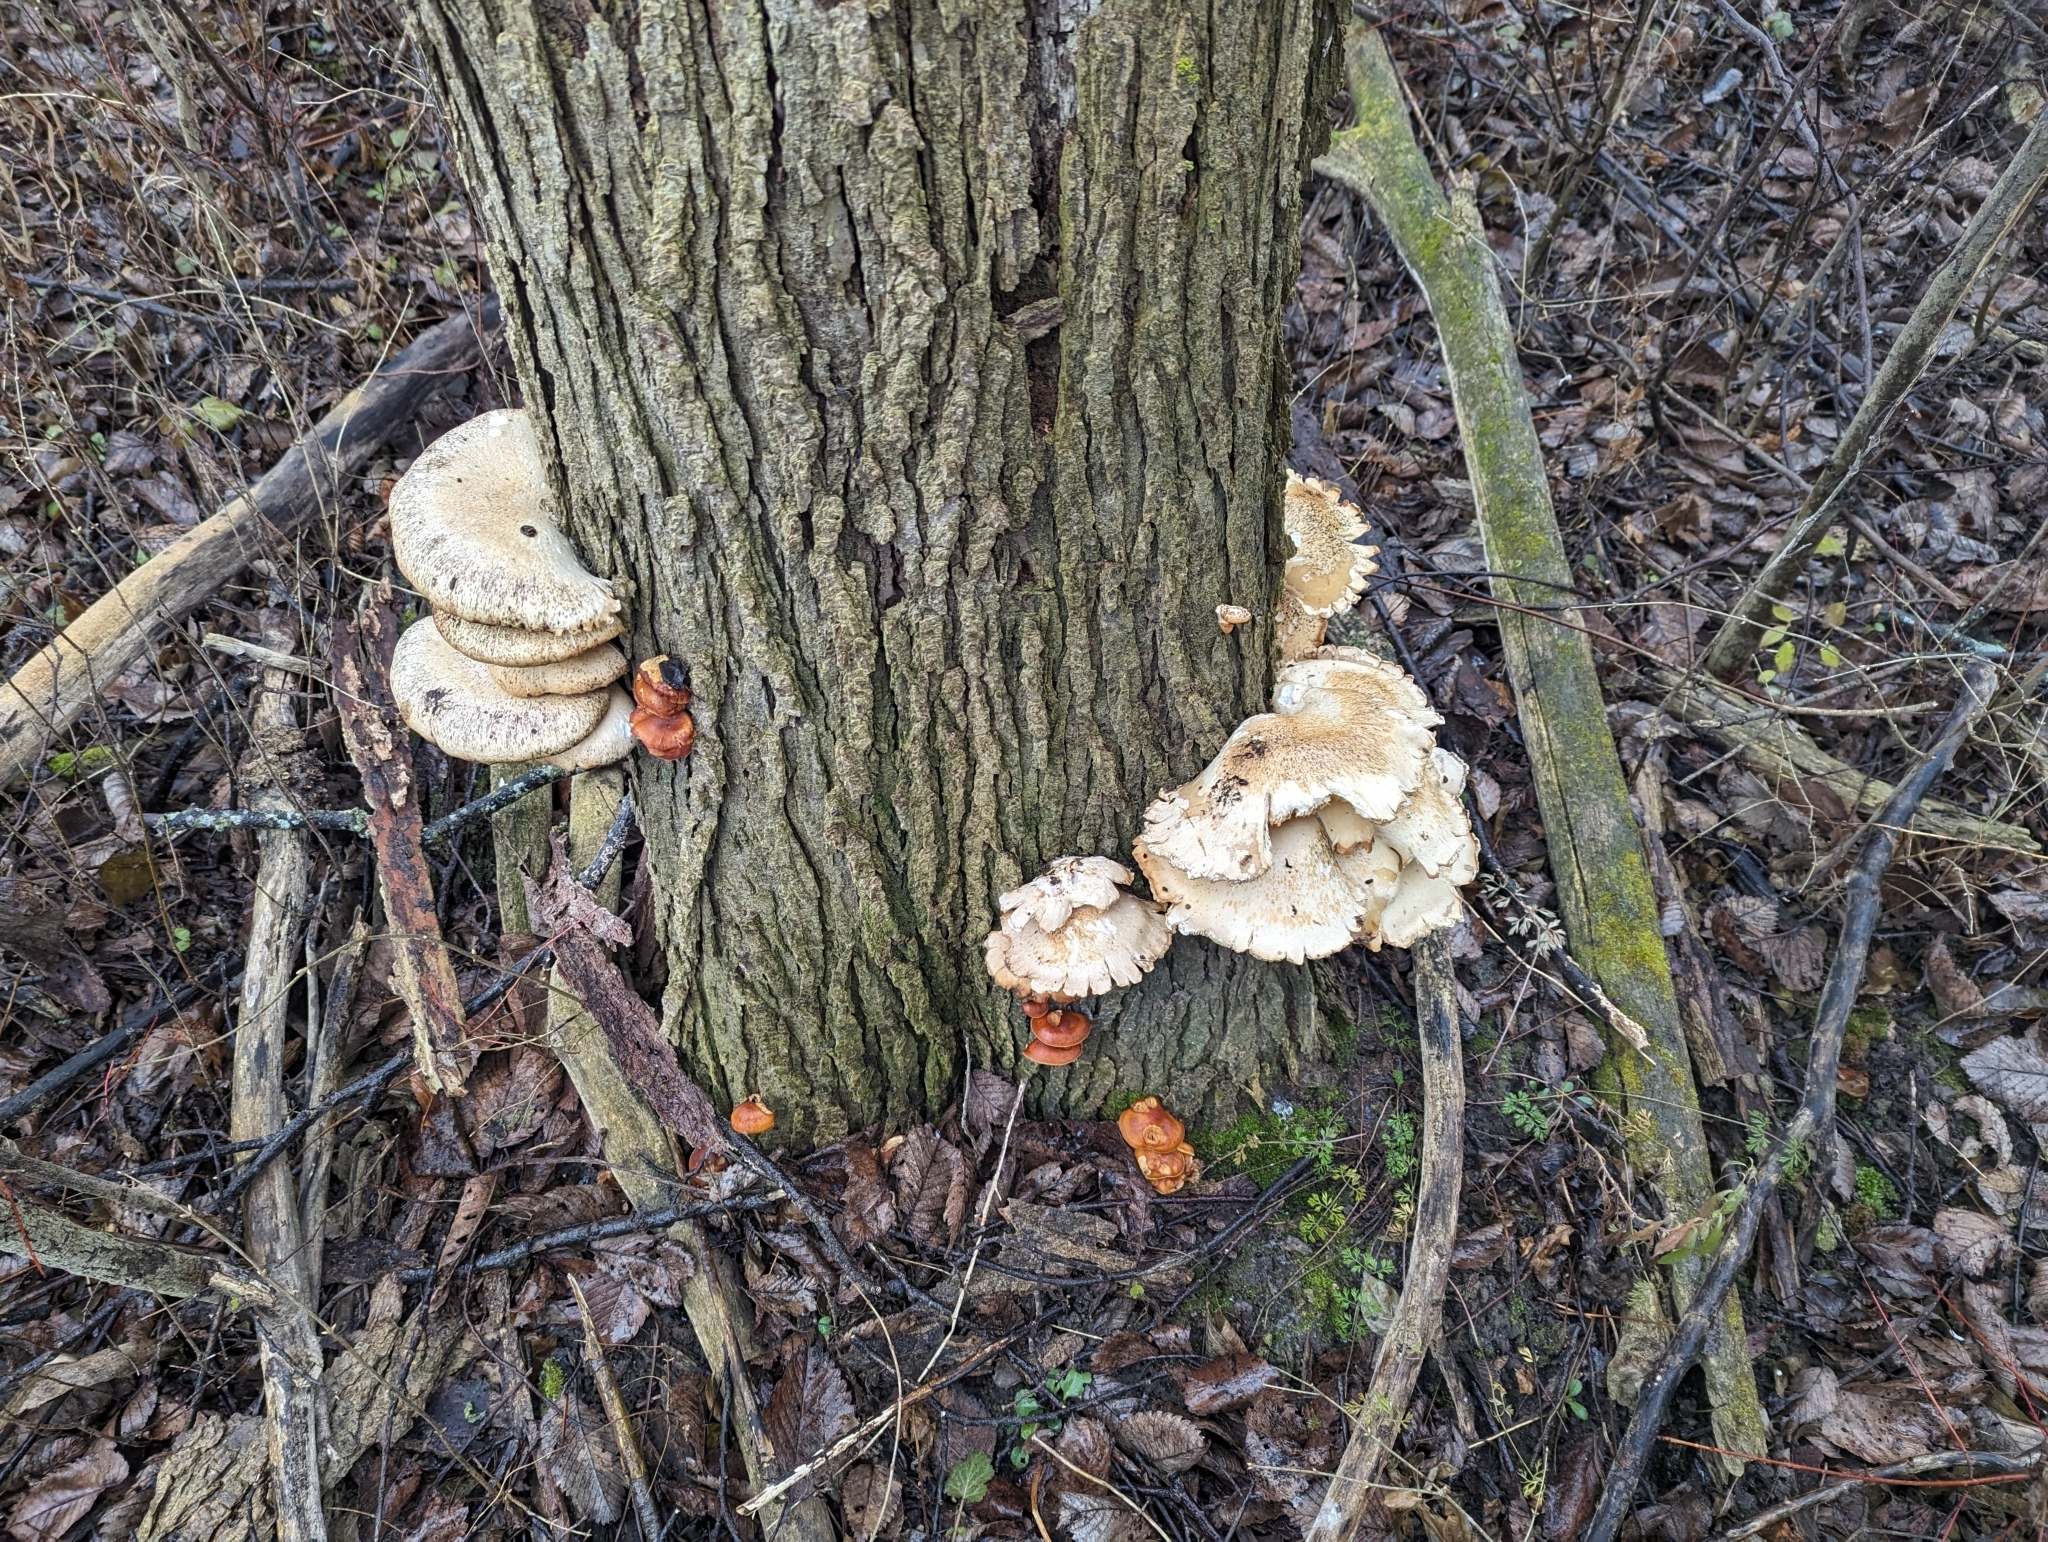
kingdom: Fungi
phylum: Basidiomycota
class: Agaricomycetes
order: Agaricales
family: Physalacriaceae
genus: Flammulina
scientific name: Flammulina velutipes
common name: Velvet shank
